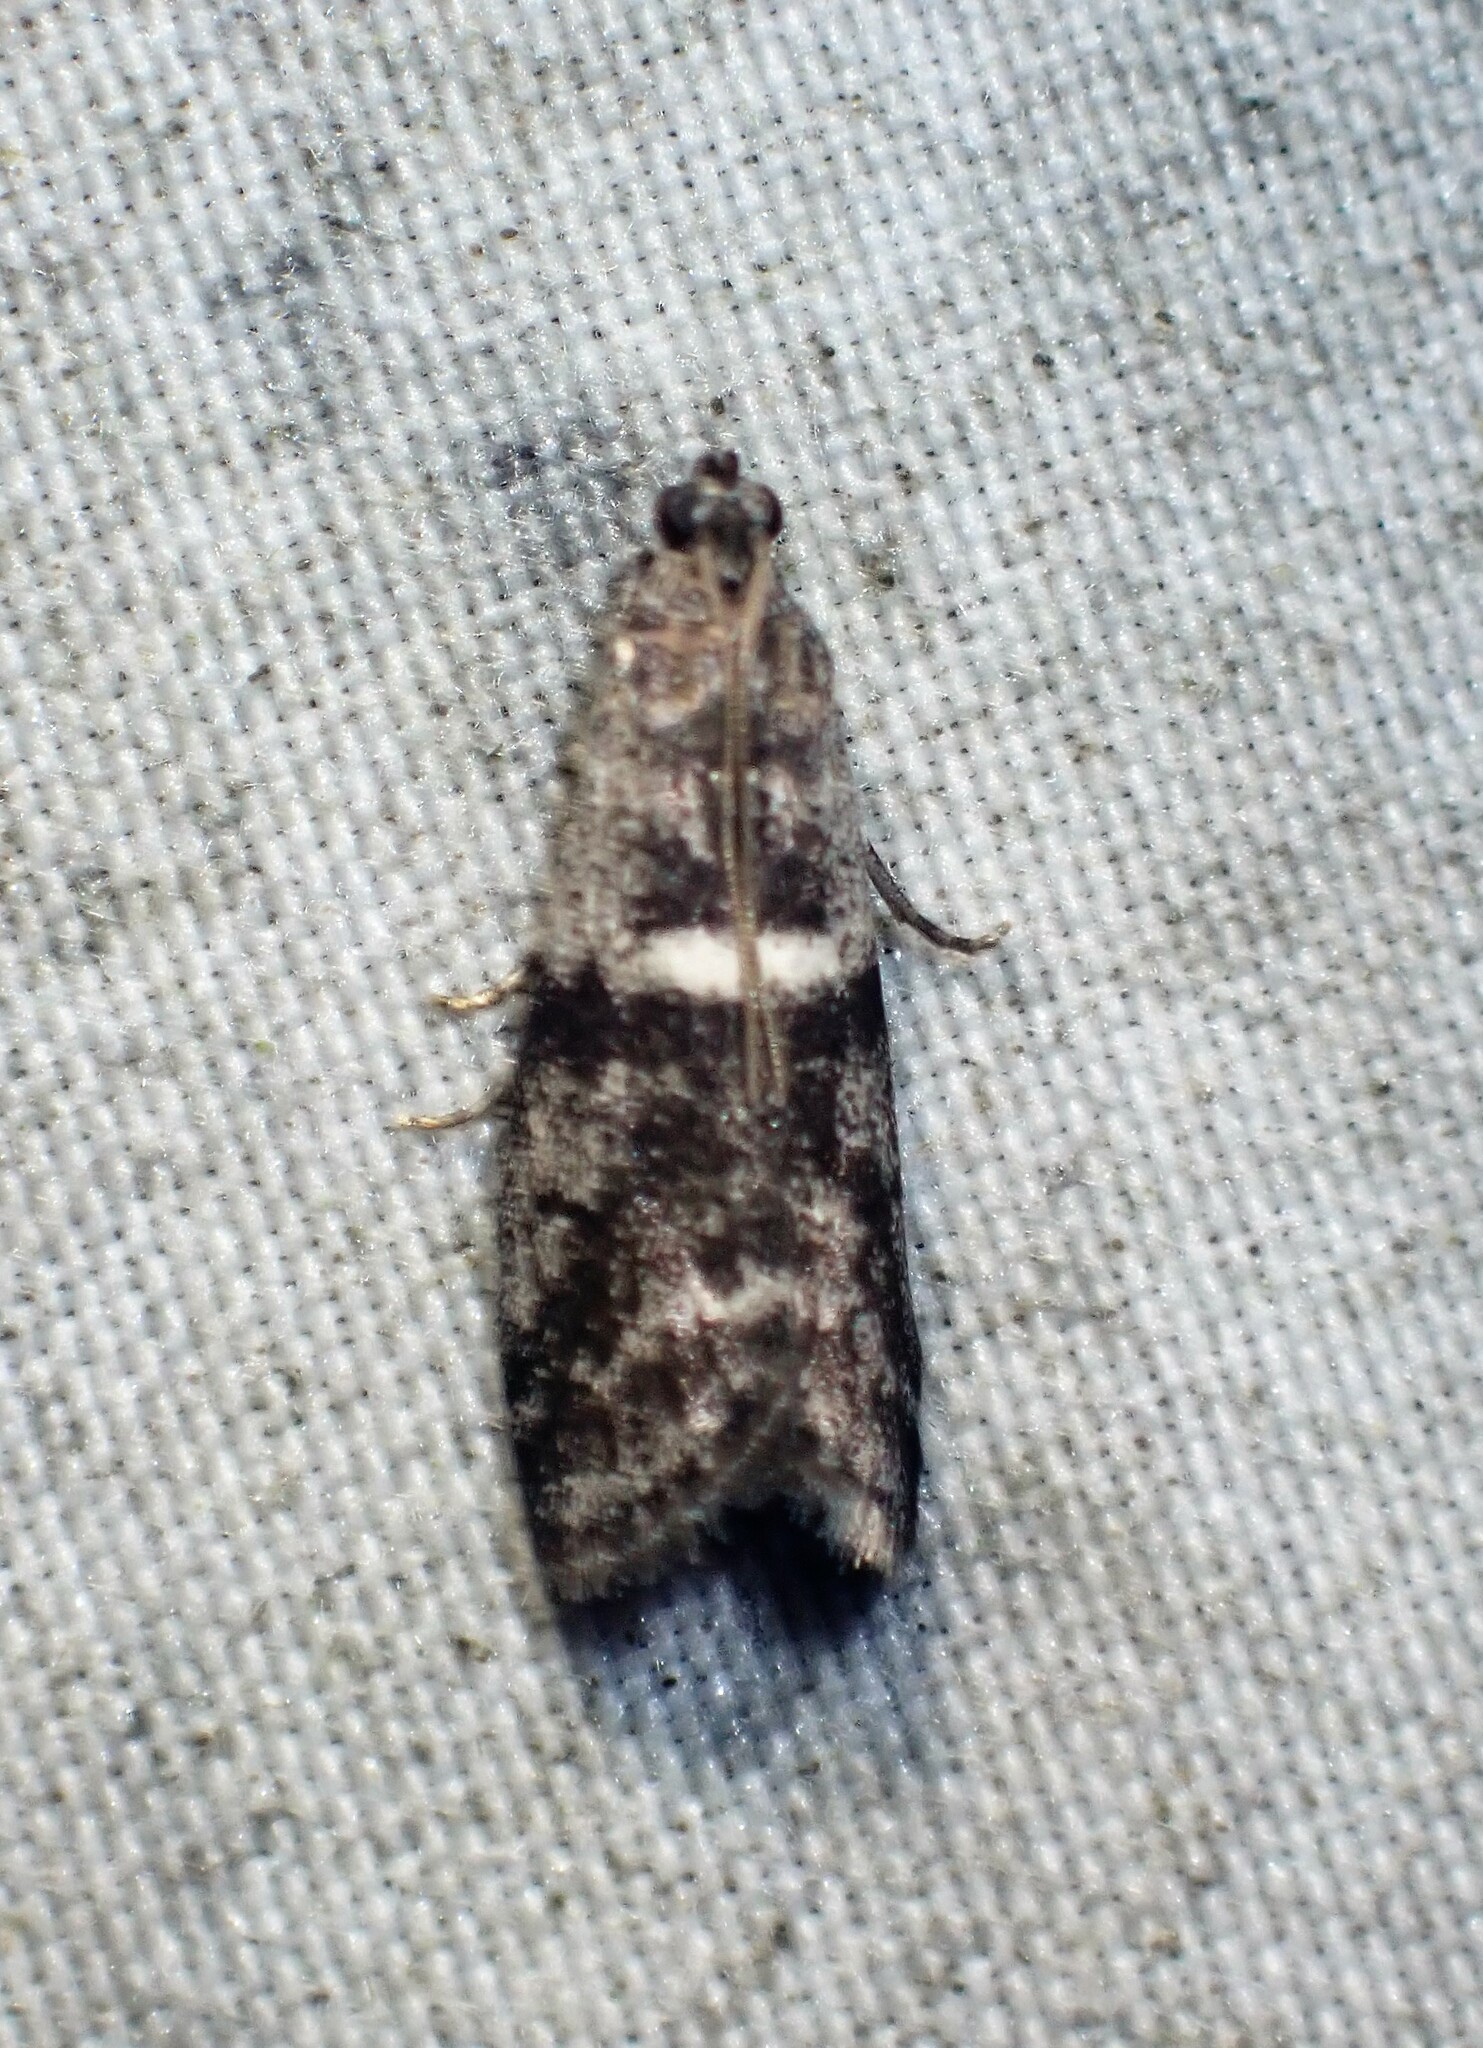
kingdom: Animalia
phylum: Arthropoda
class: Insecta
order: Lepidoptera
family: Pyralidae
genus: Apomyelois
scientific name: Apomyelois bistriatella
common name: Heath knot-horn
